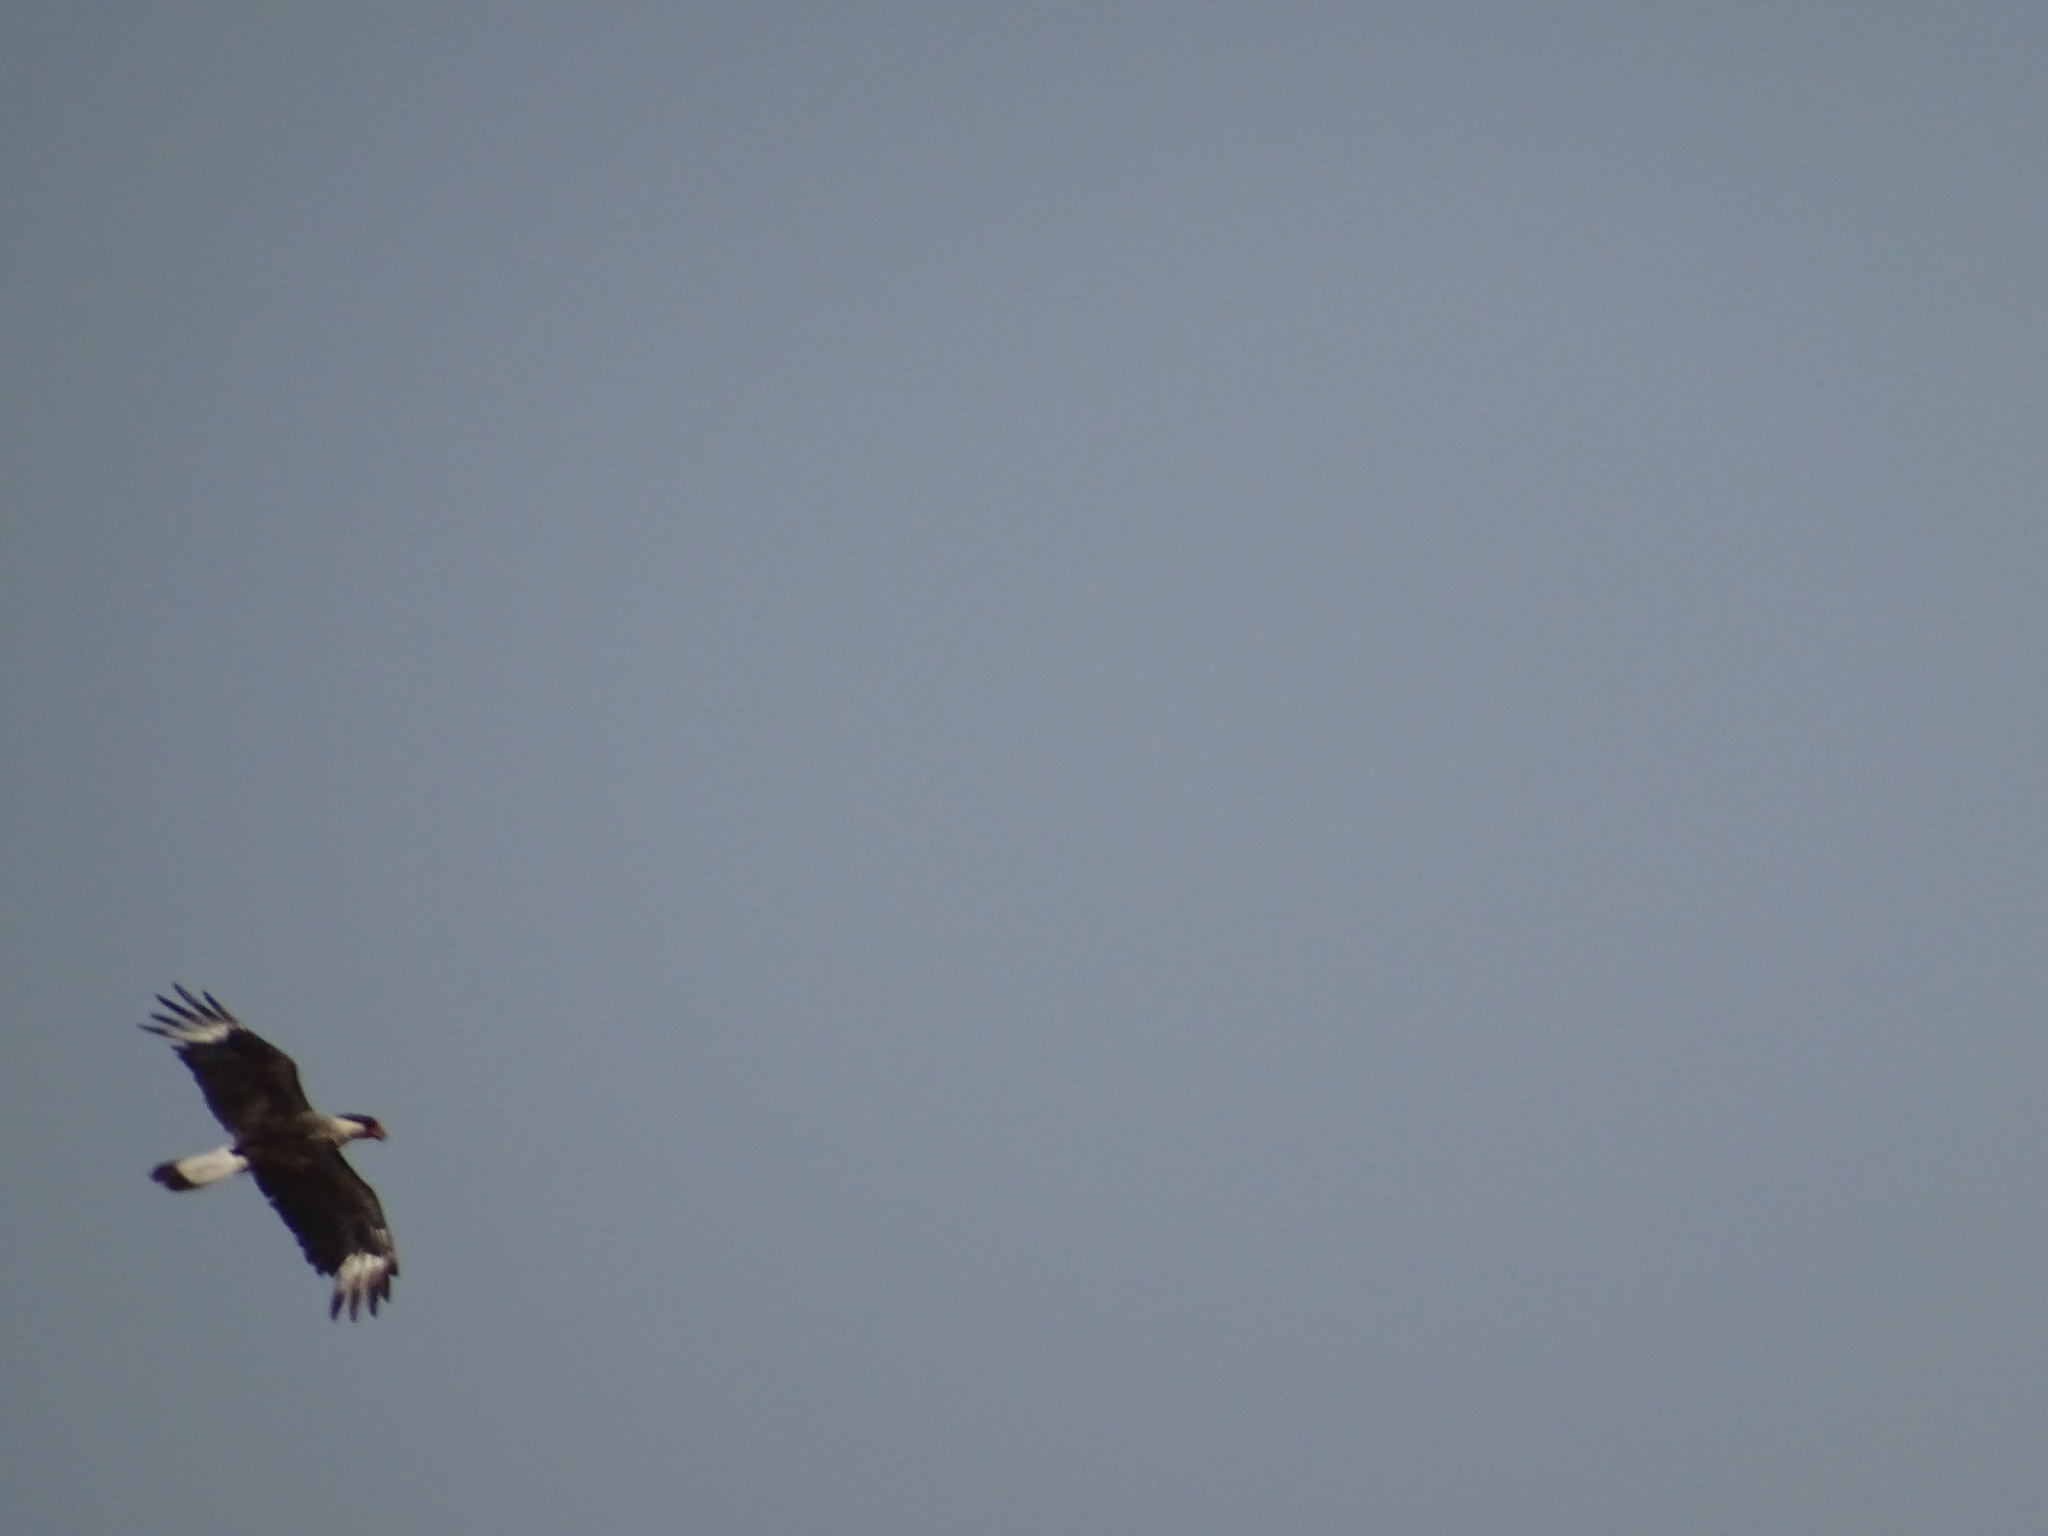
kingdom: Animalia
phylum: Chordata
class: Aves
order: Falconiformes
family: Falconidae
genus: Caracara
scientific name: Caracara plancus
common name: Southern caracara
